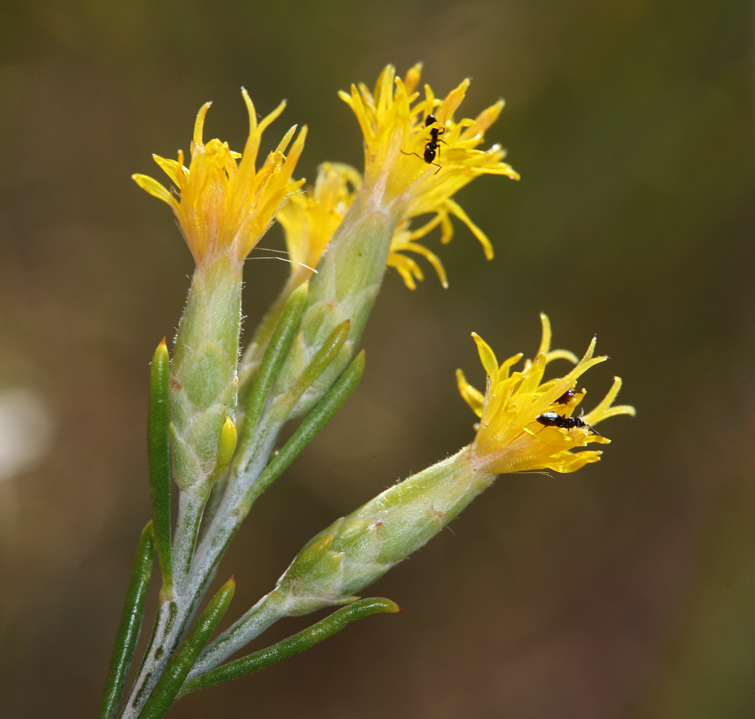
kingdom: Plantae
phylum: Tracheophyta
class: Magnoliopsida
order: Asterales
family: Asteraceae
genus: Lepidospartum
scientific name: Lepidospartum latisquamum
